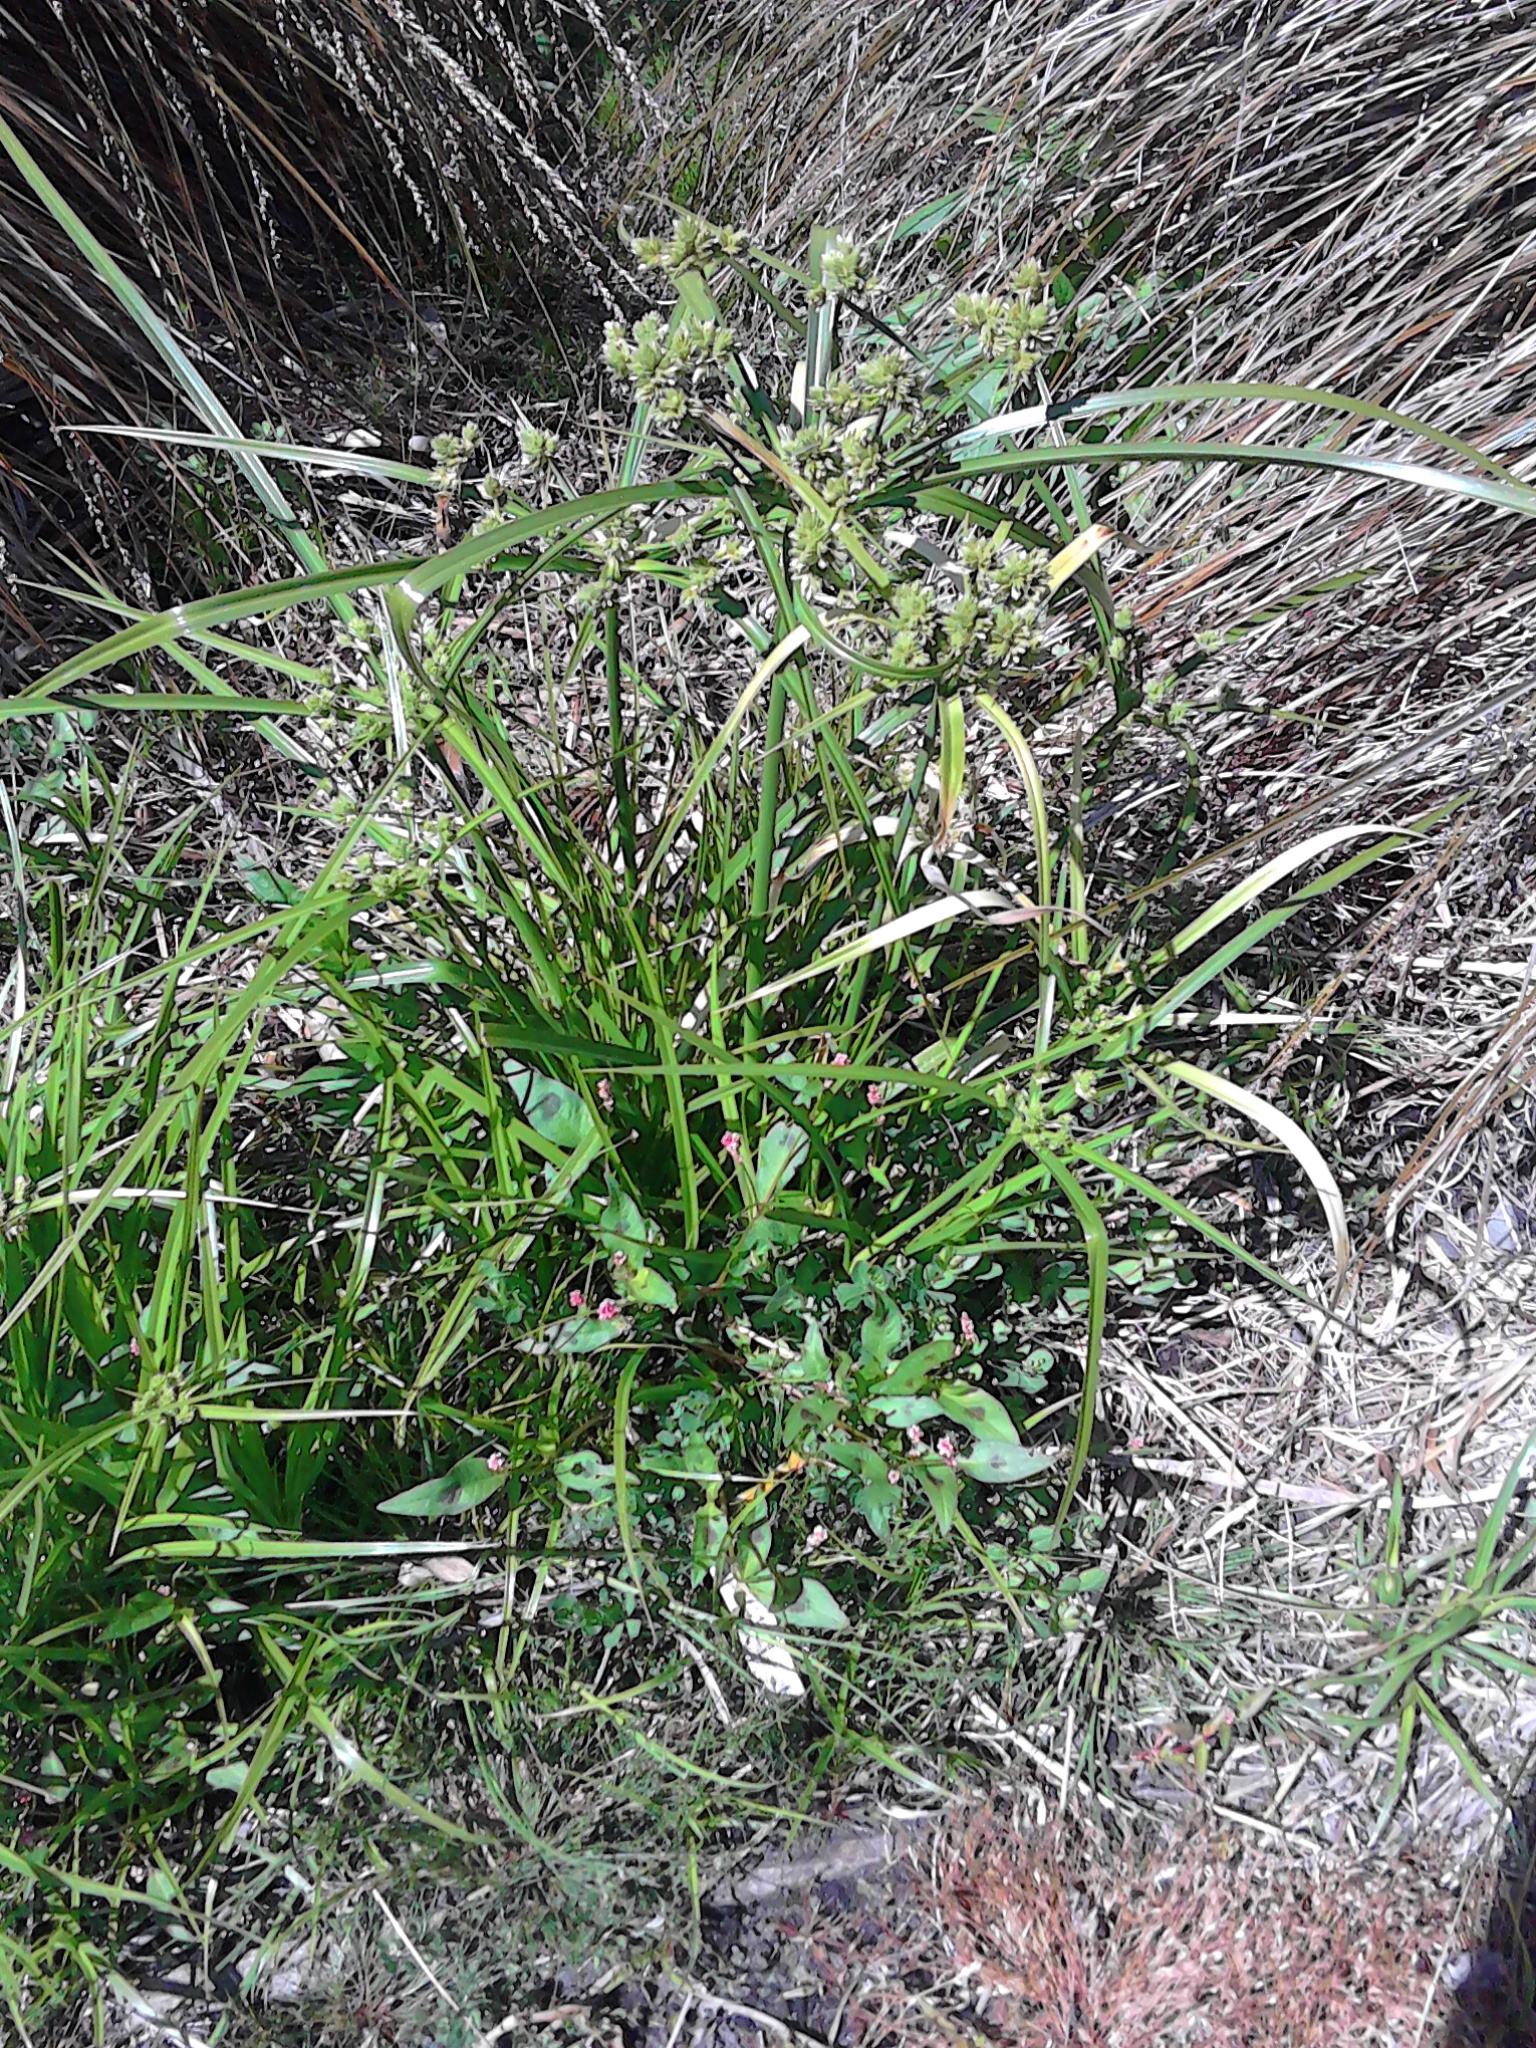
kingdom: Plantae
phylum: Tracheophyta
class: Liliopsida
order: Poales
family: Cyperaceae
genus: Cyperus
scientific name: Cyperus eragrostis
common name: Tall flatsedge
